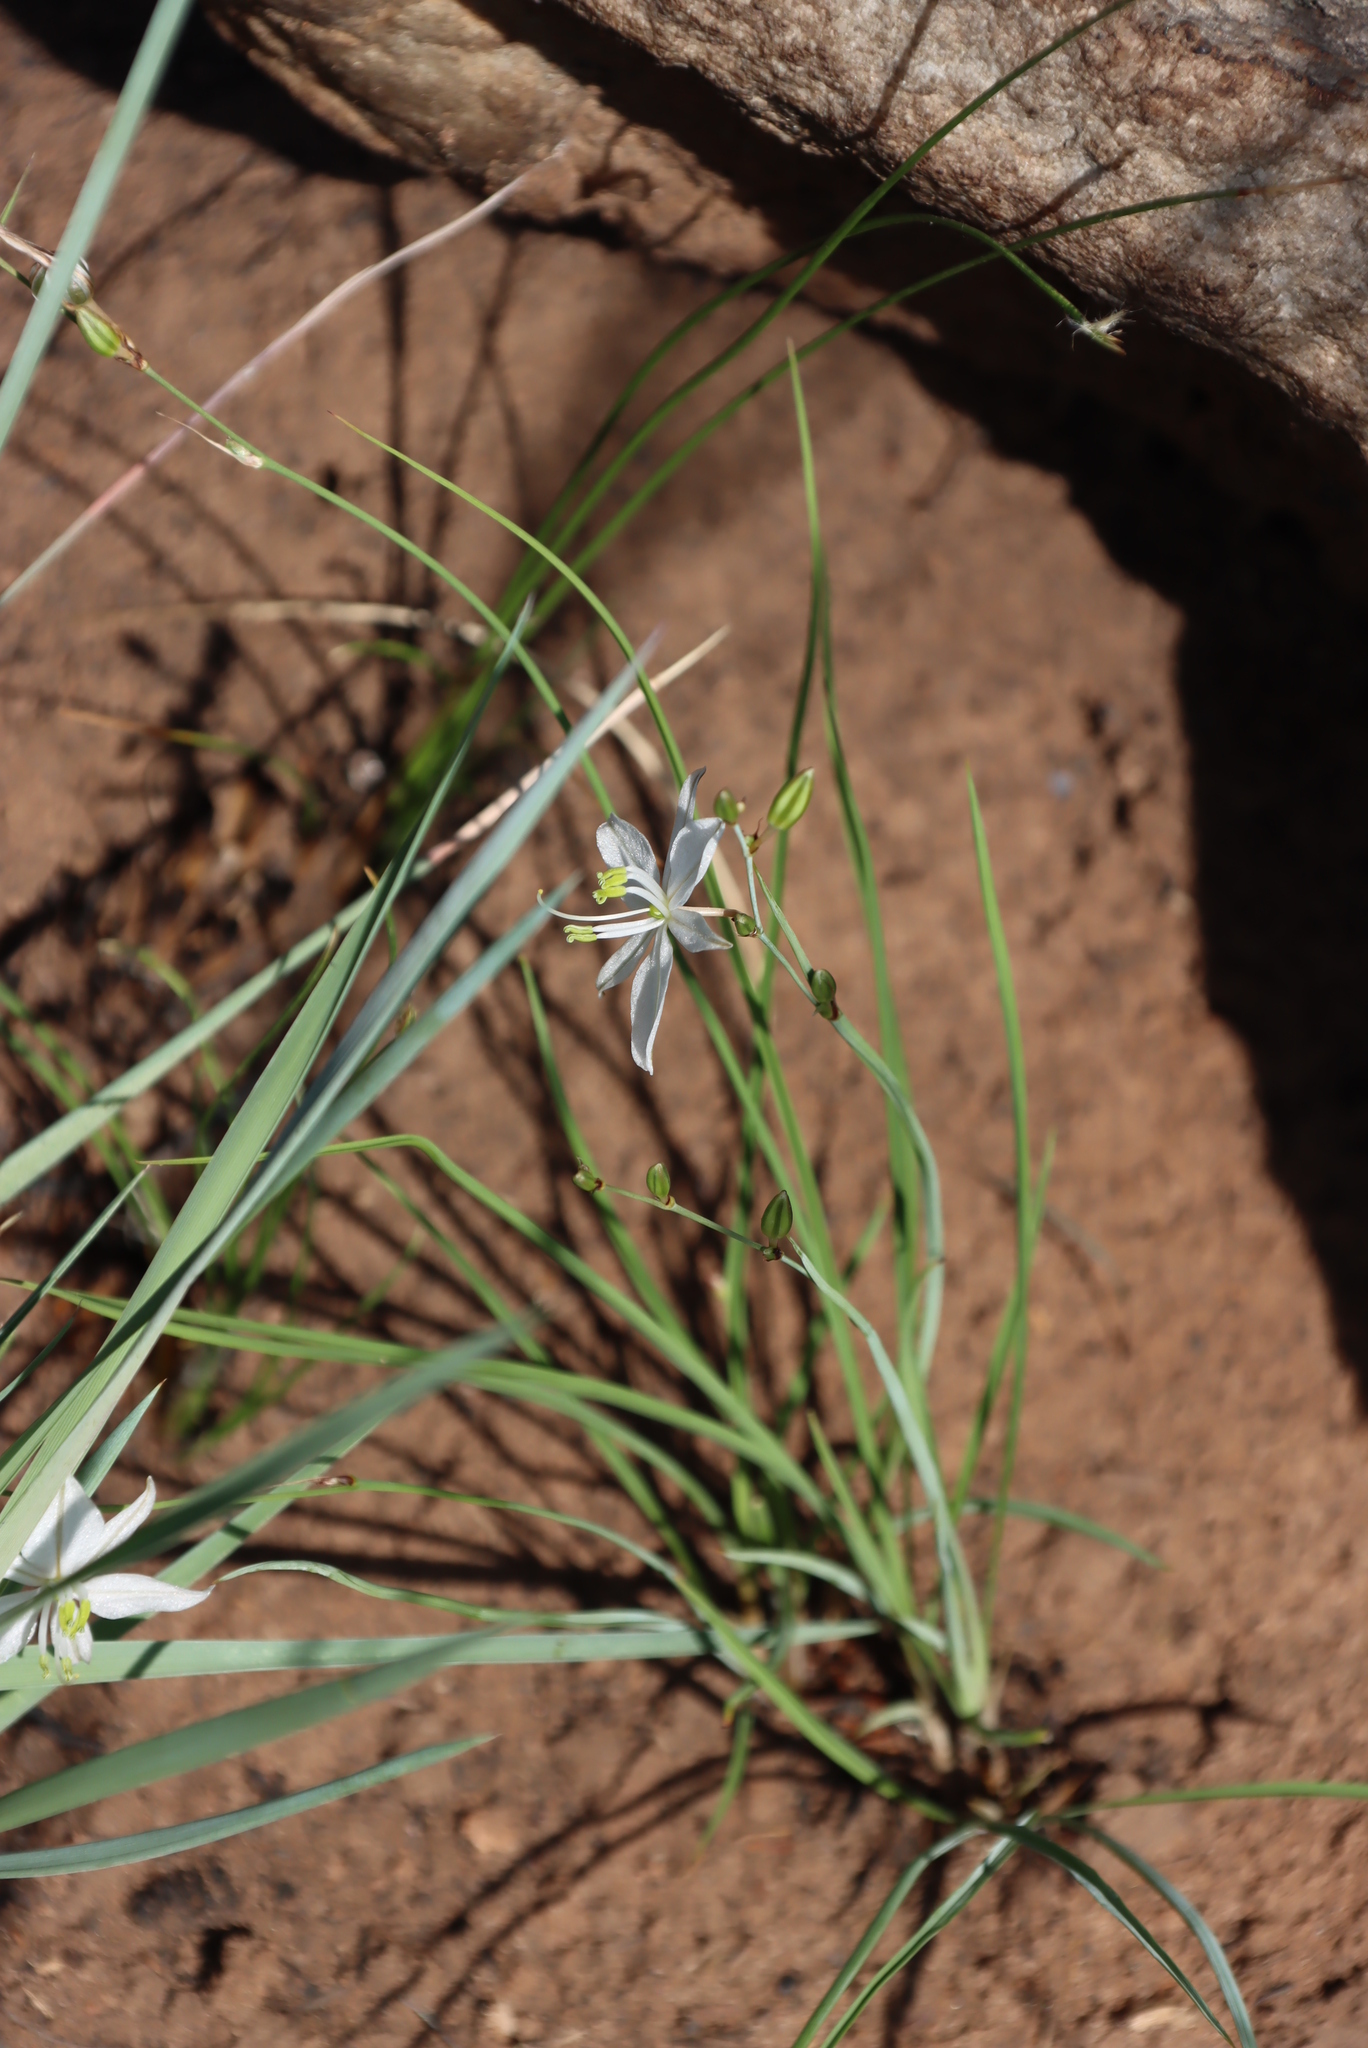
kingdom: Plantae
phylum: Tracheophyta
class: Liliopsida
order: Asparagales
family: Asparagaceae
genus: Chlorophytum
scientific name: Chlorophytum cooperi
